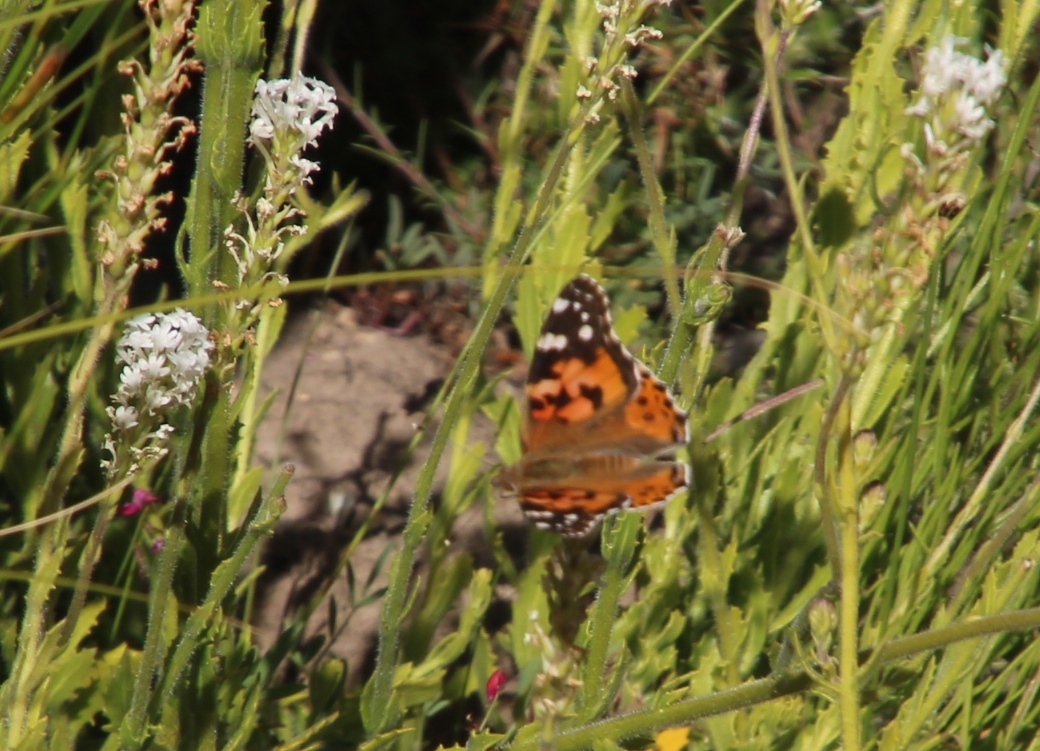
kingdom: Animalia
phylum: Arthropoda
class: Insecta
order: Lepidoptera
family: Nymphalidae
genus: Vanessa
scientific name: Vanessa cardui
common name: Painted lady
